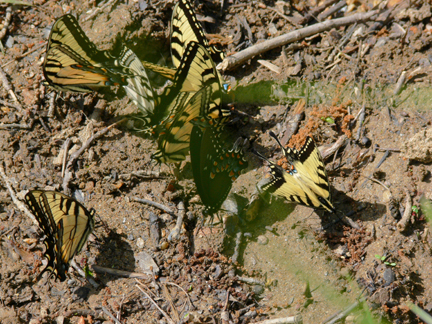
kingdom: Animalia
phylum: Arthropoda
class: Insecta
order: Lepidoptera
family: Papilionidae
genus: Papilio
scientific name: Papilio glaucus
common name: Tiger swallowtail
